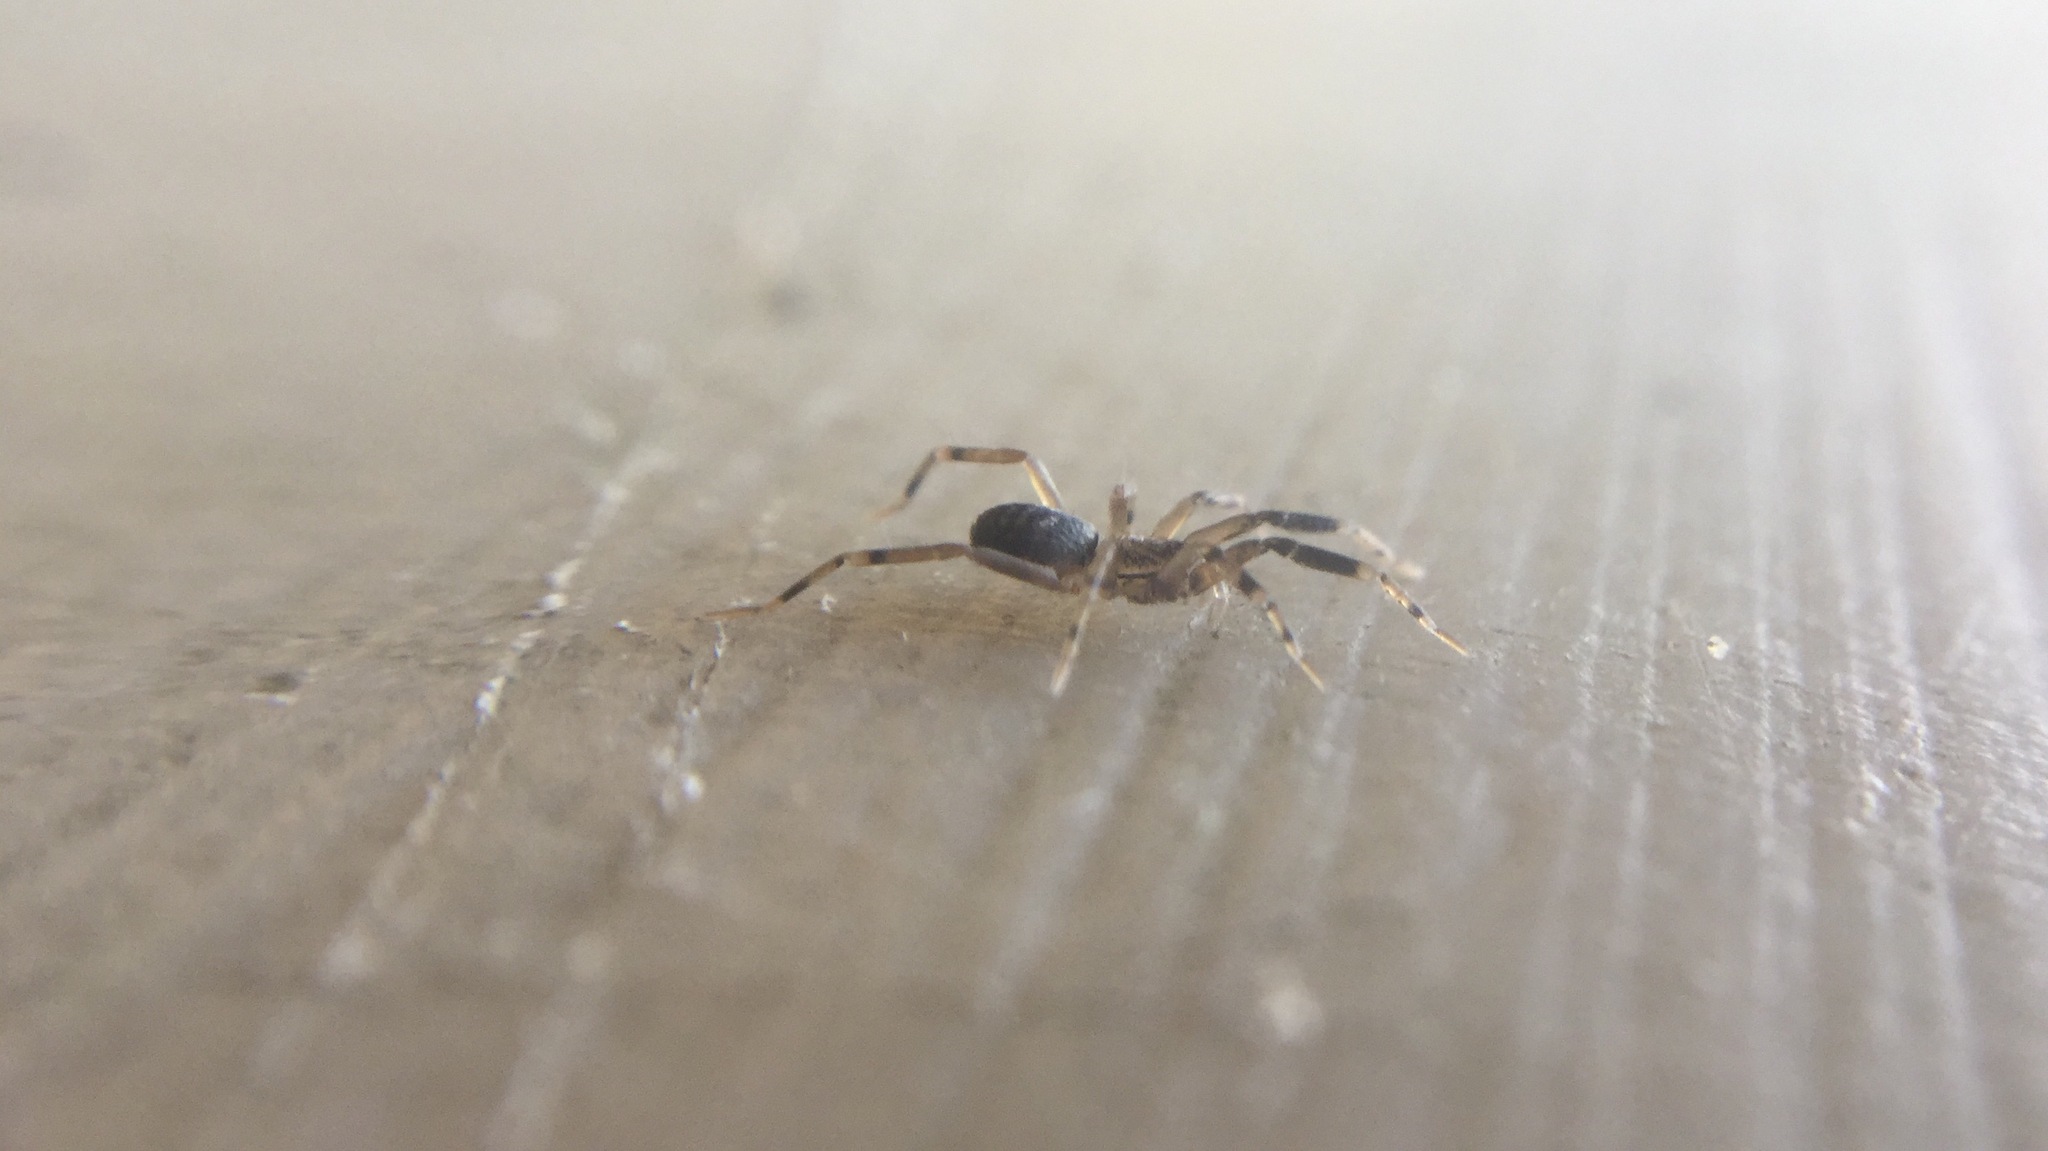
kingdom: Animalia
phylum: Arthropoda
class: Arachnida
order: Araneae
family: Phrurolithidae
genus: Phrurotimpus
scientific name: Phrurotimpus borealis
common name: Greater ant-mimic corinne spider
